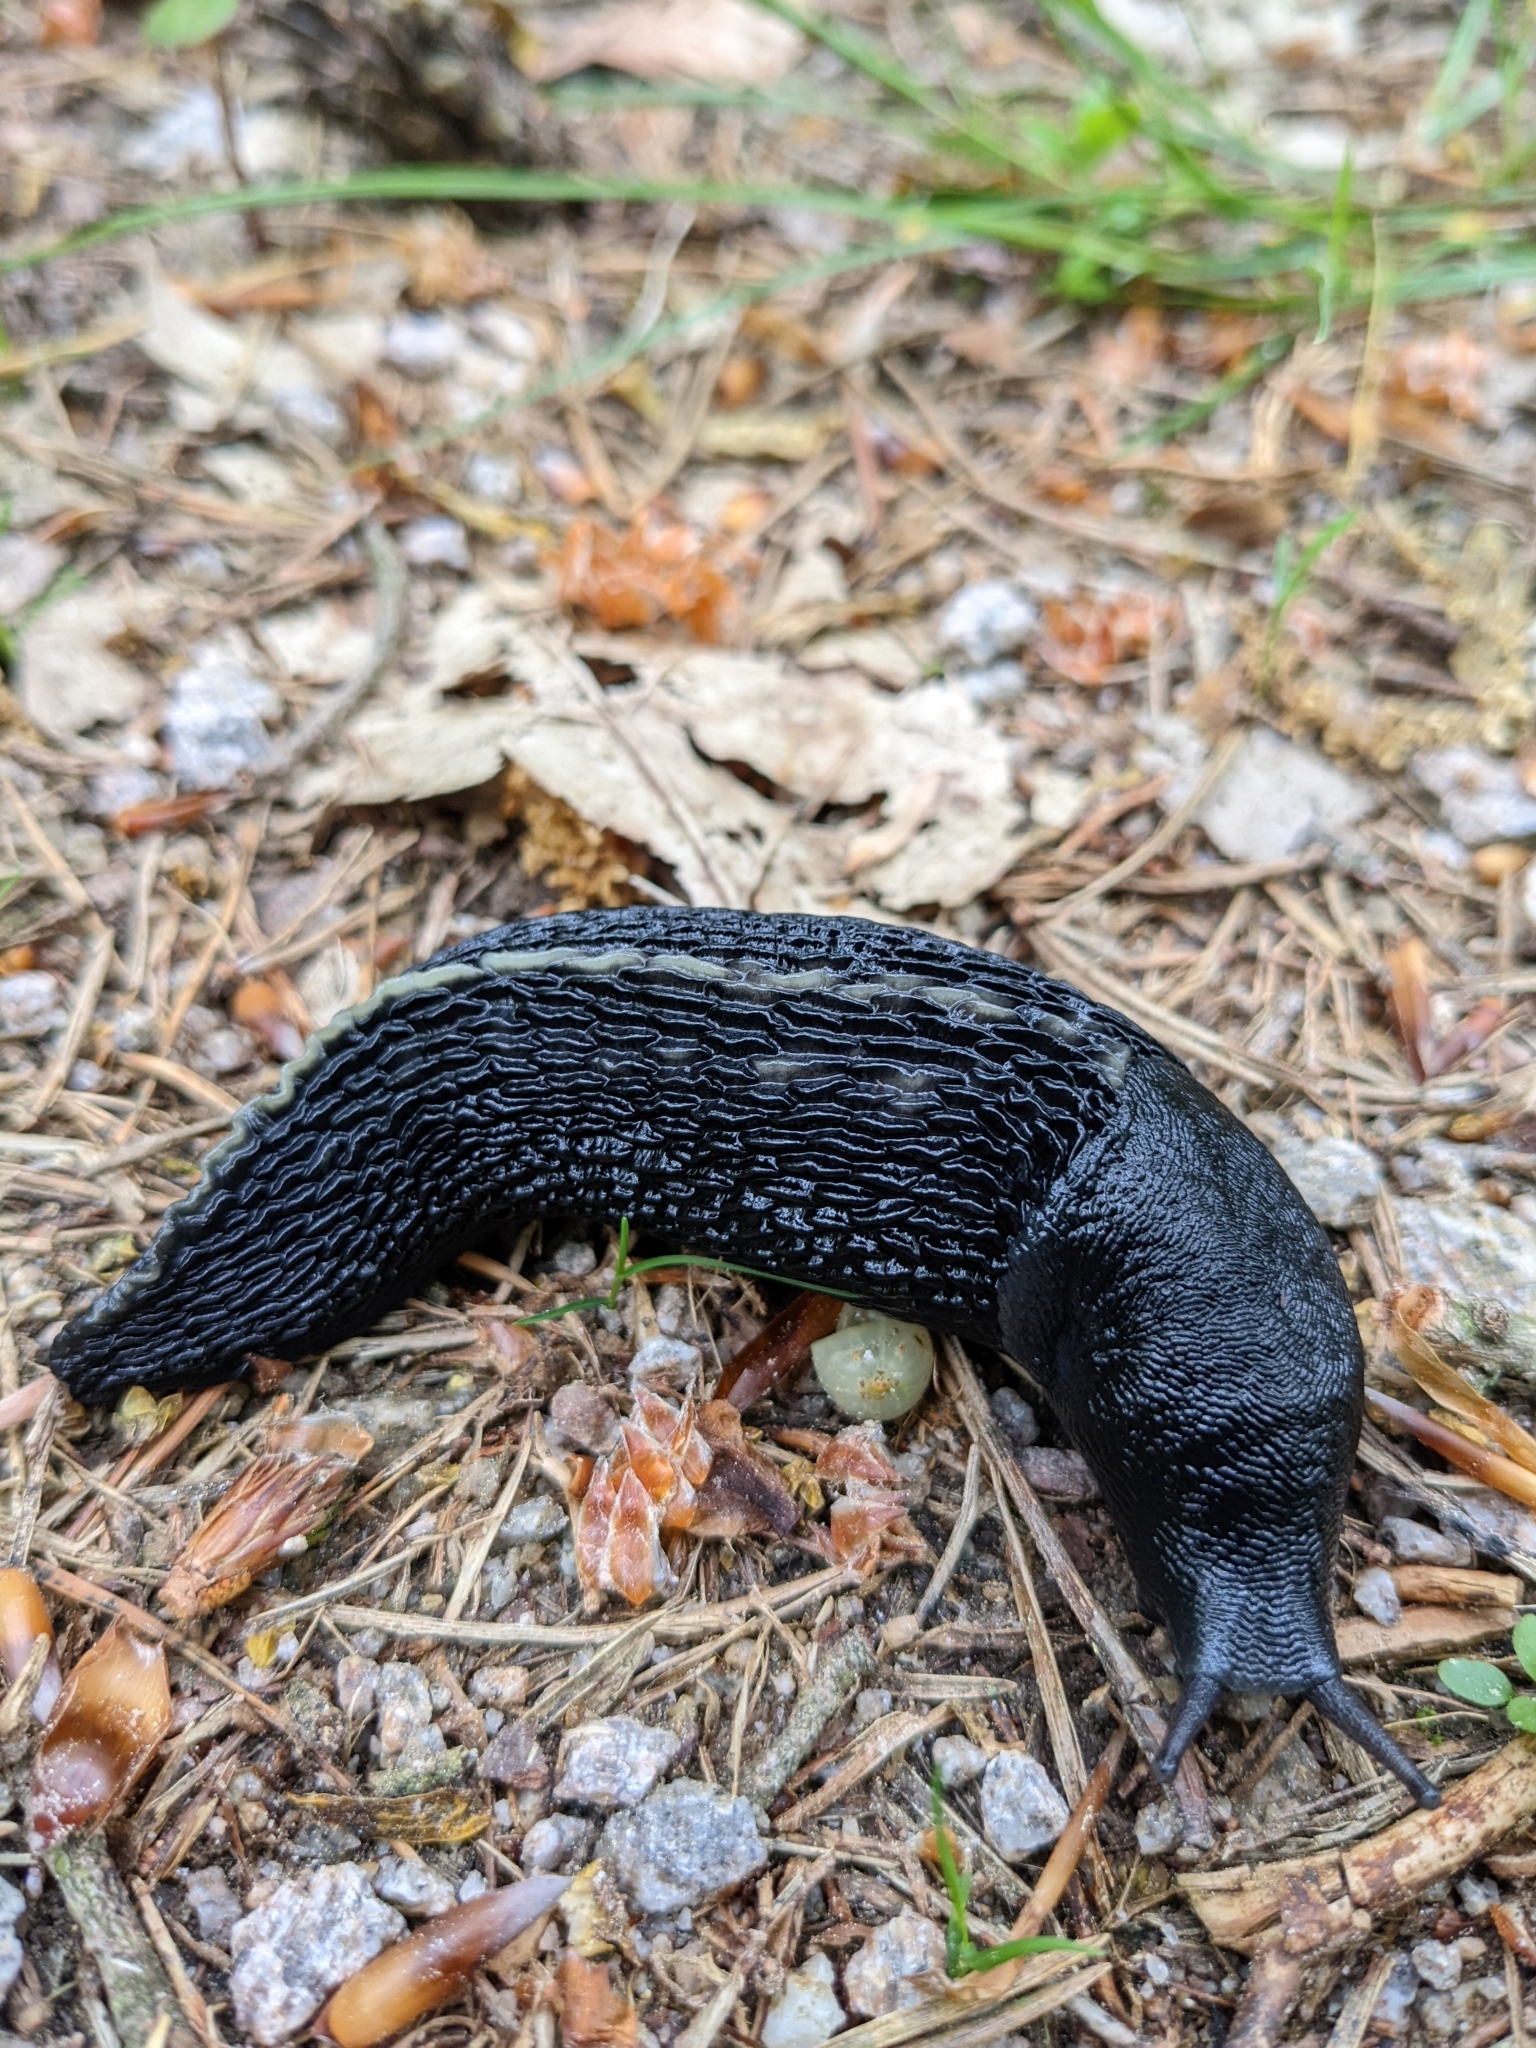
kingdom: Animalia
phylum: Mollusca
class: Gastropoda
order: Stylommatophora
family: Limacidae
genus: Limax
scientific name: Limax cinereoniger
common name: Ash-black slug
